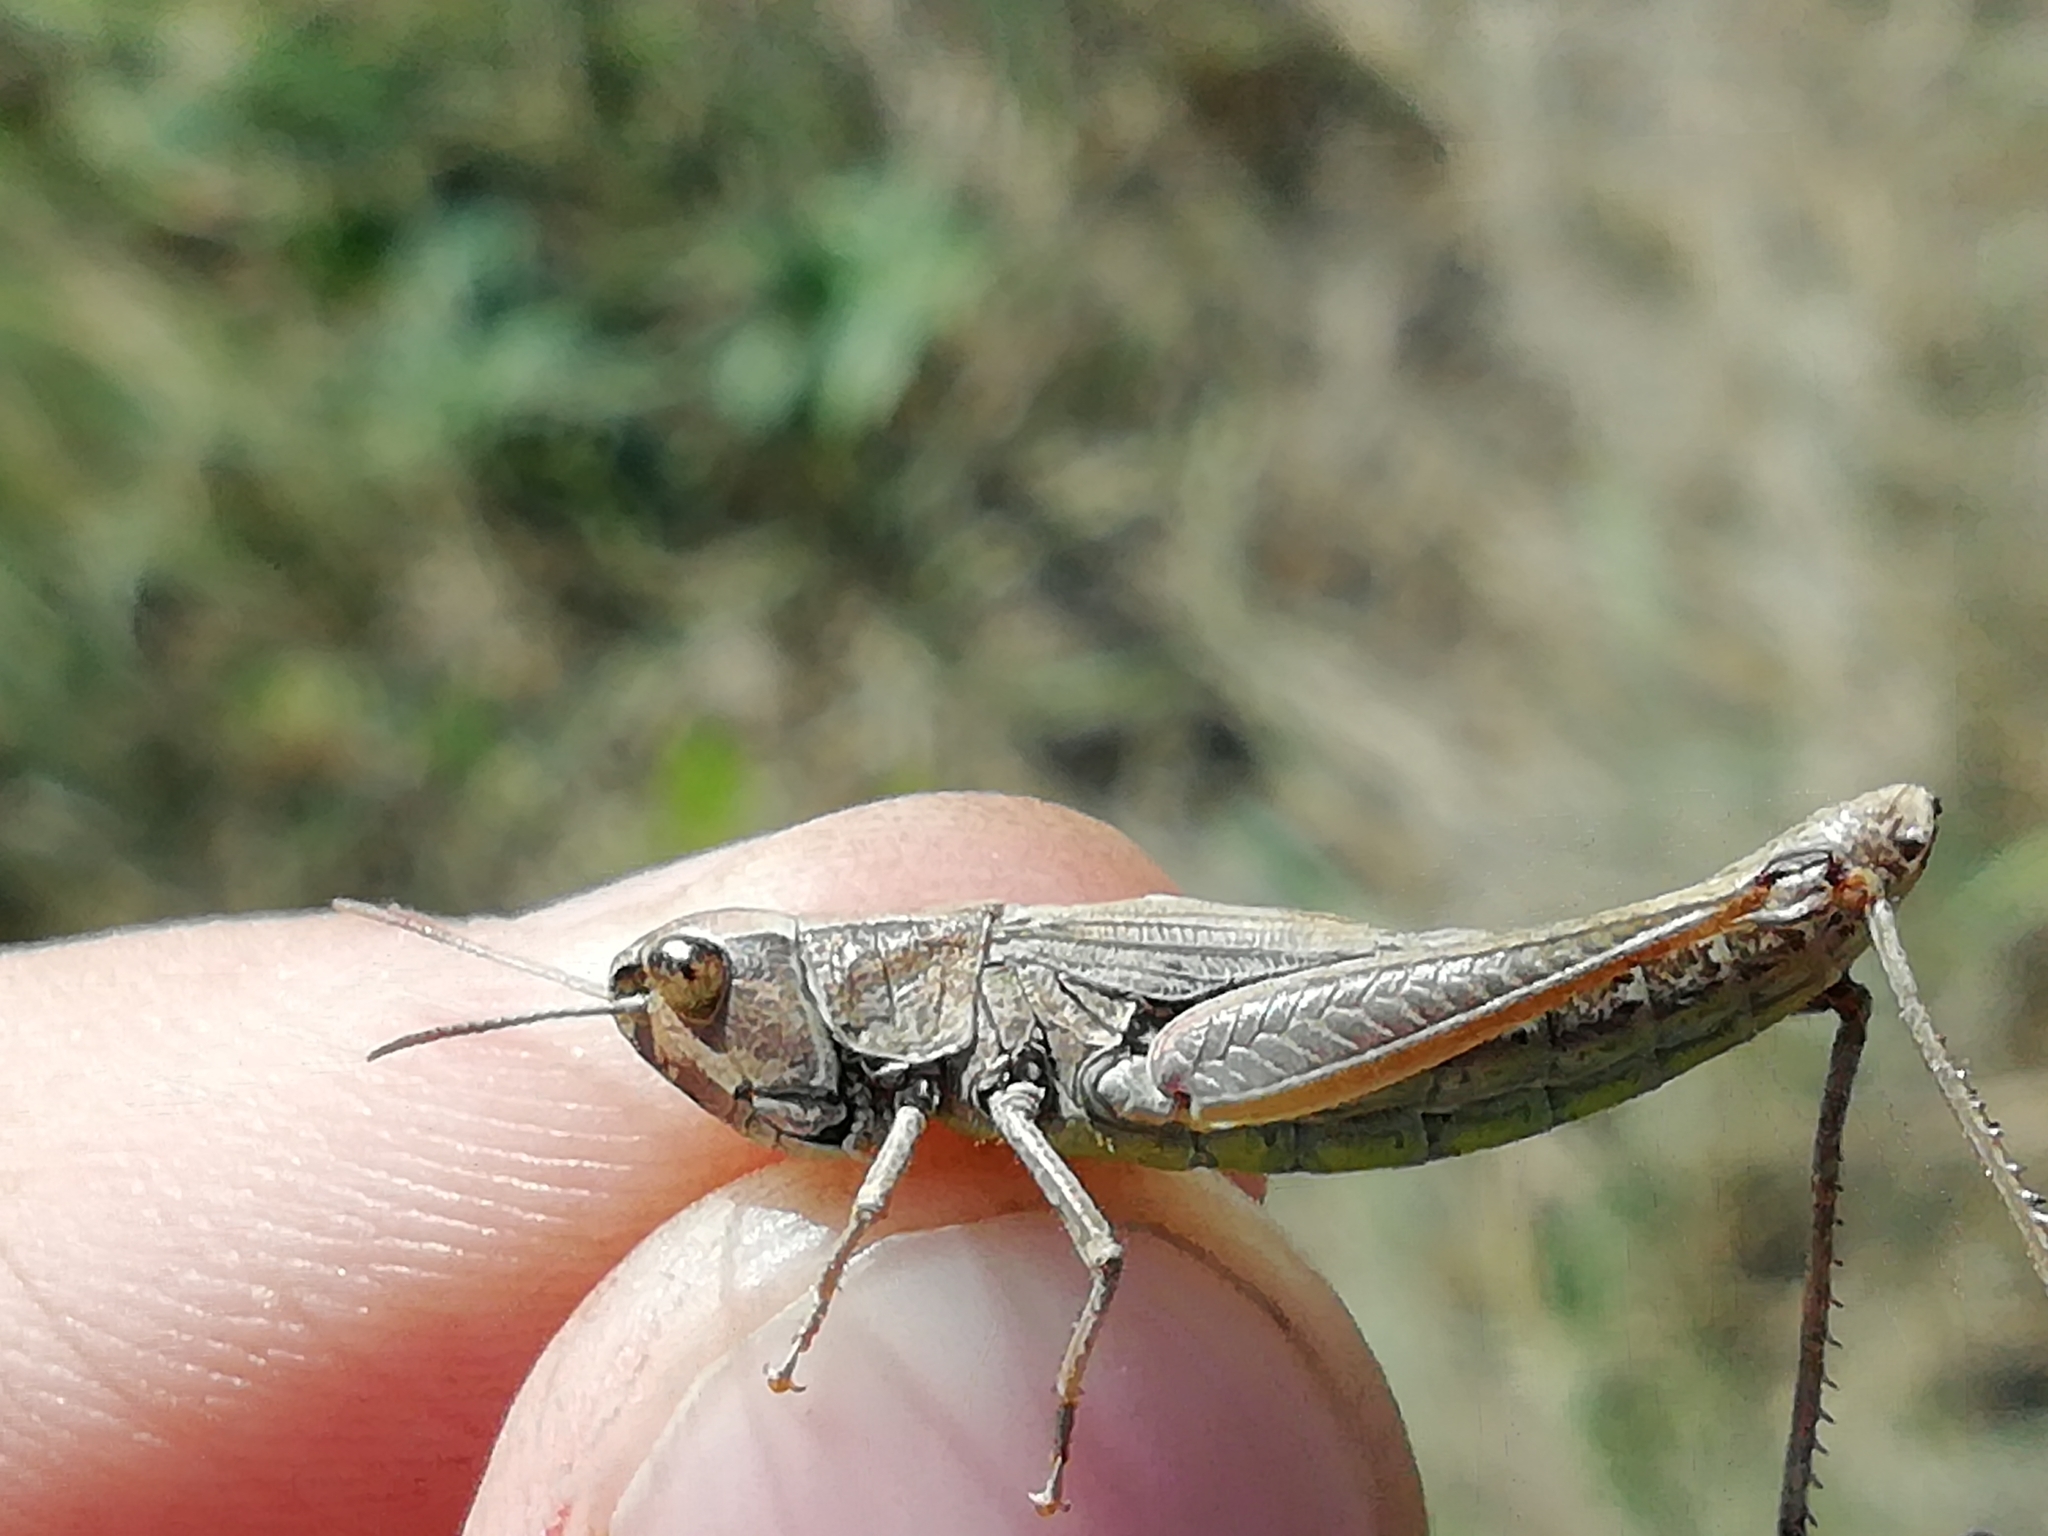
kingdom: Animalia
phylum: Arthropoda
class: Insecta
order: Orthoptera
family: Acrididae
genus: Pseudochorthippus
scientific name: Pseudochorthippus parallelus
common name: Meadow grasshopper
